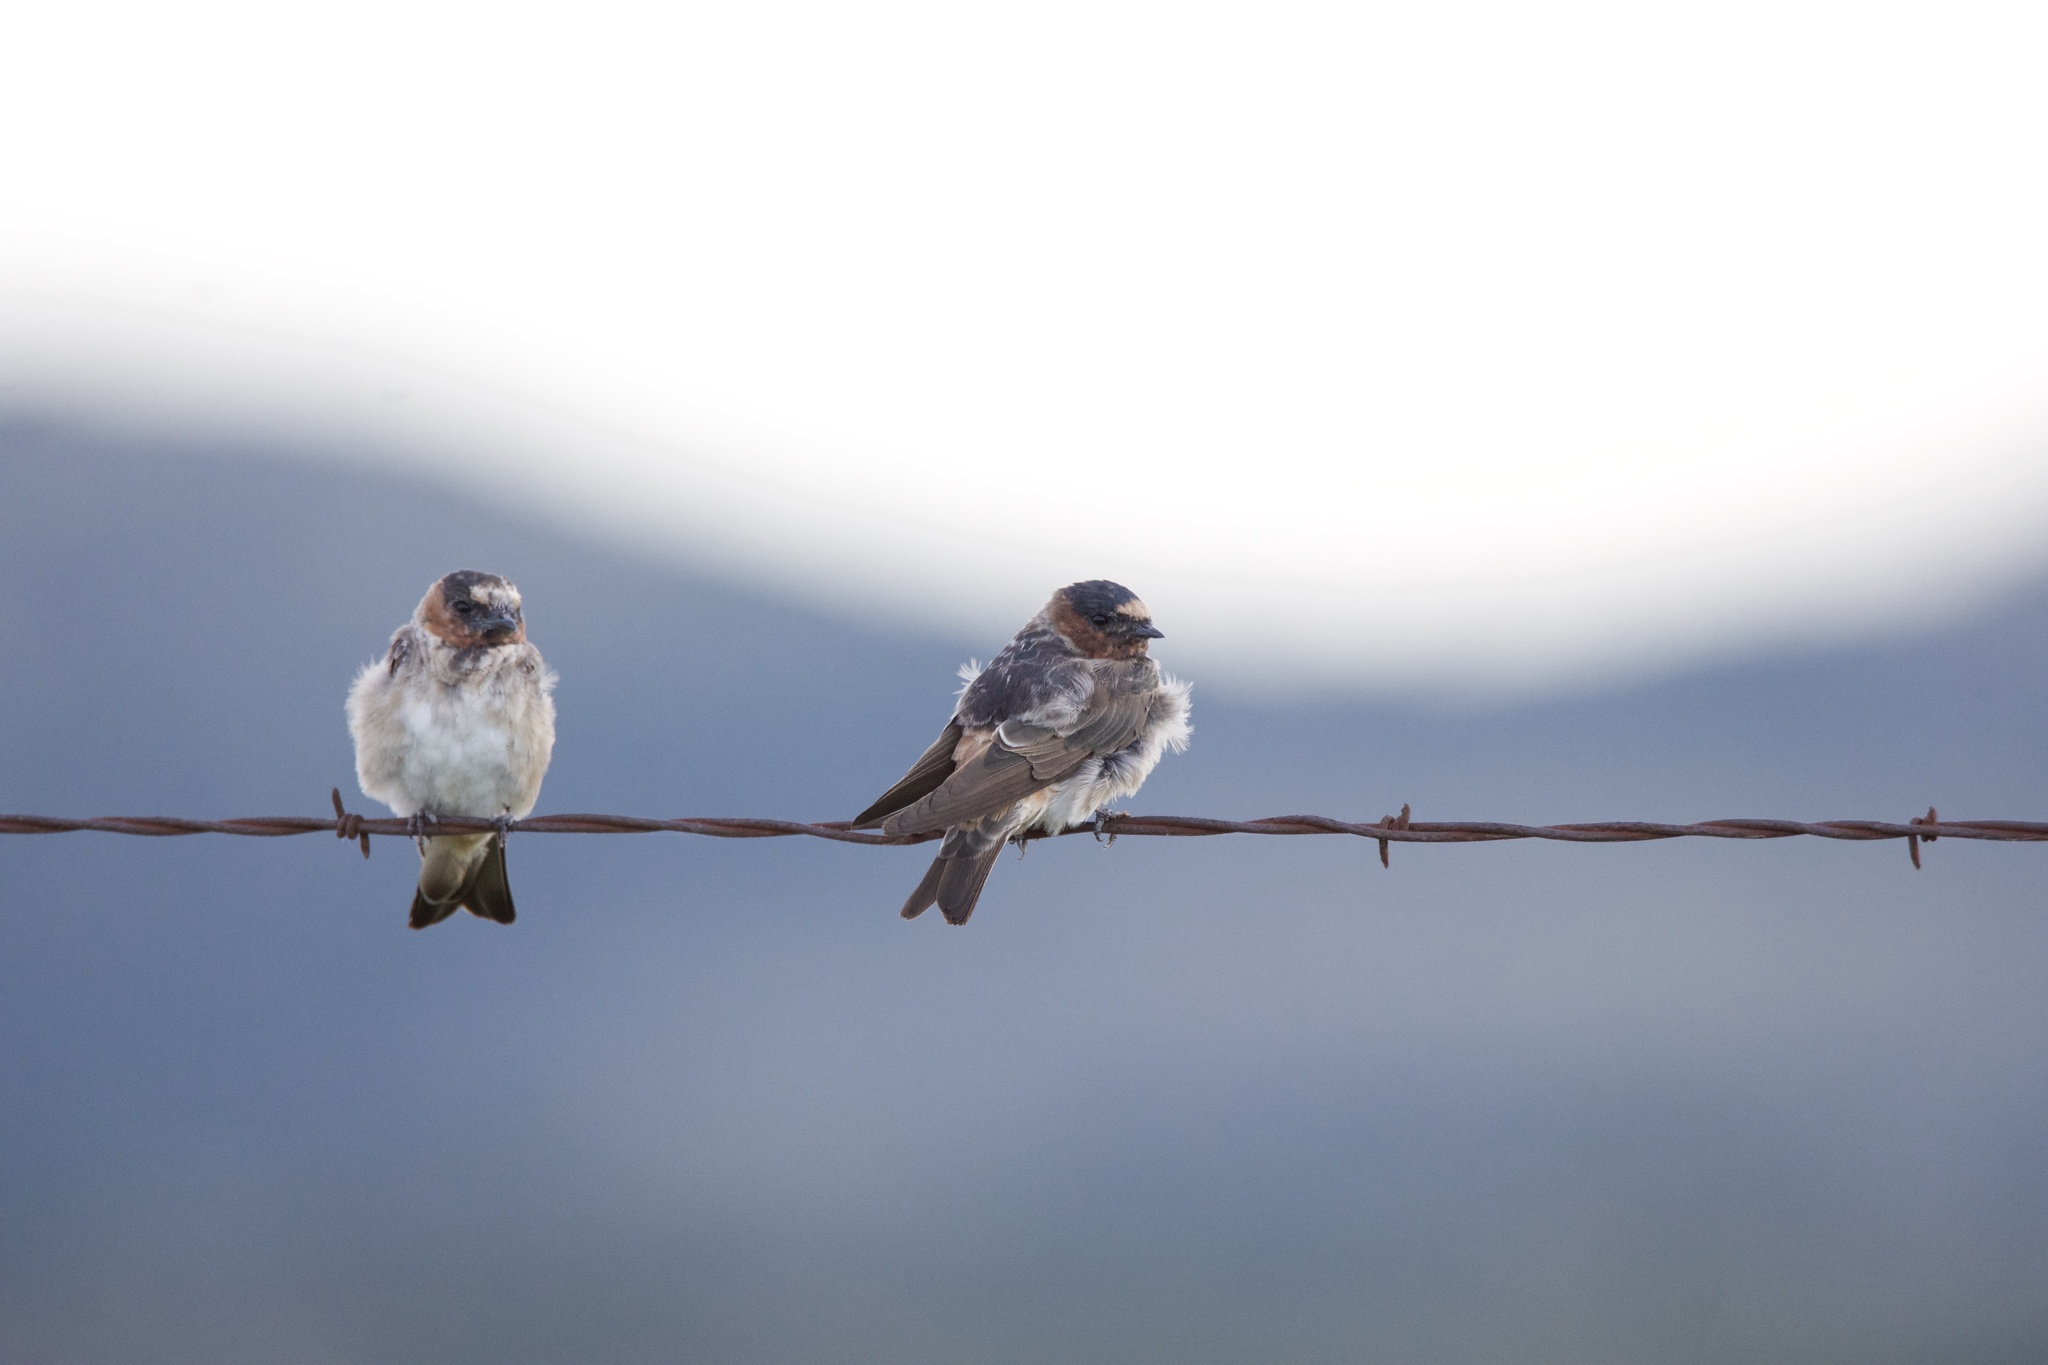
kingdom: Animalia
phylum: Chordata
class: Aves
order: Passeriformes
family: Hirundinidae
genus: Petrochelidon
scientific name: Petrochelidon pyrrhonota
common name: American cliff swallow
